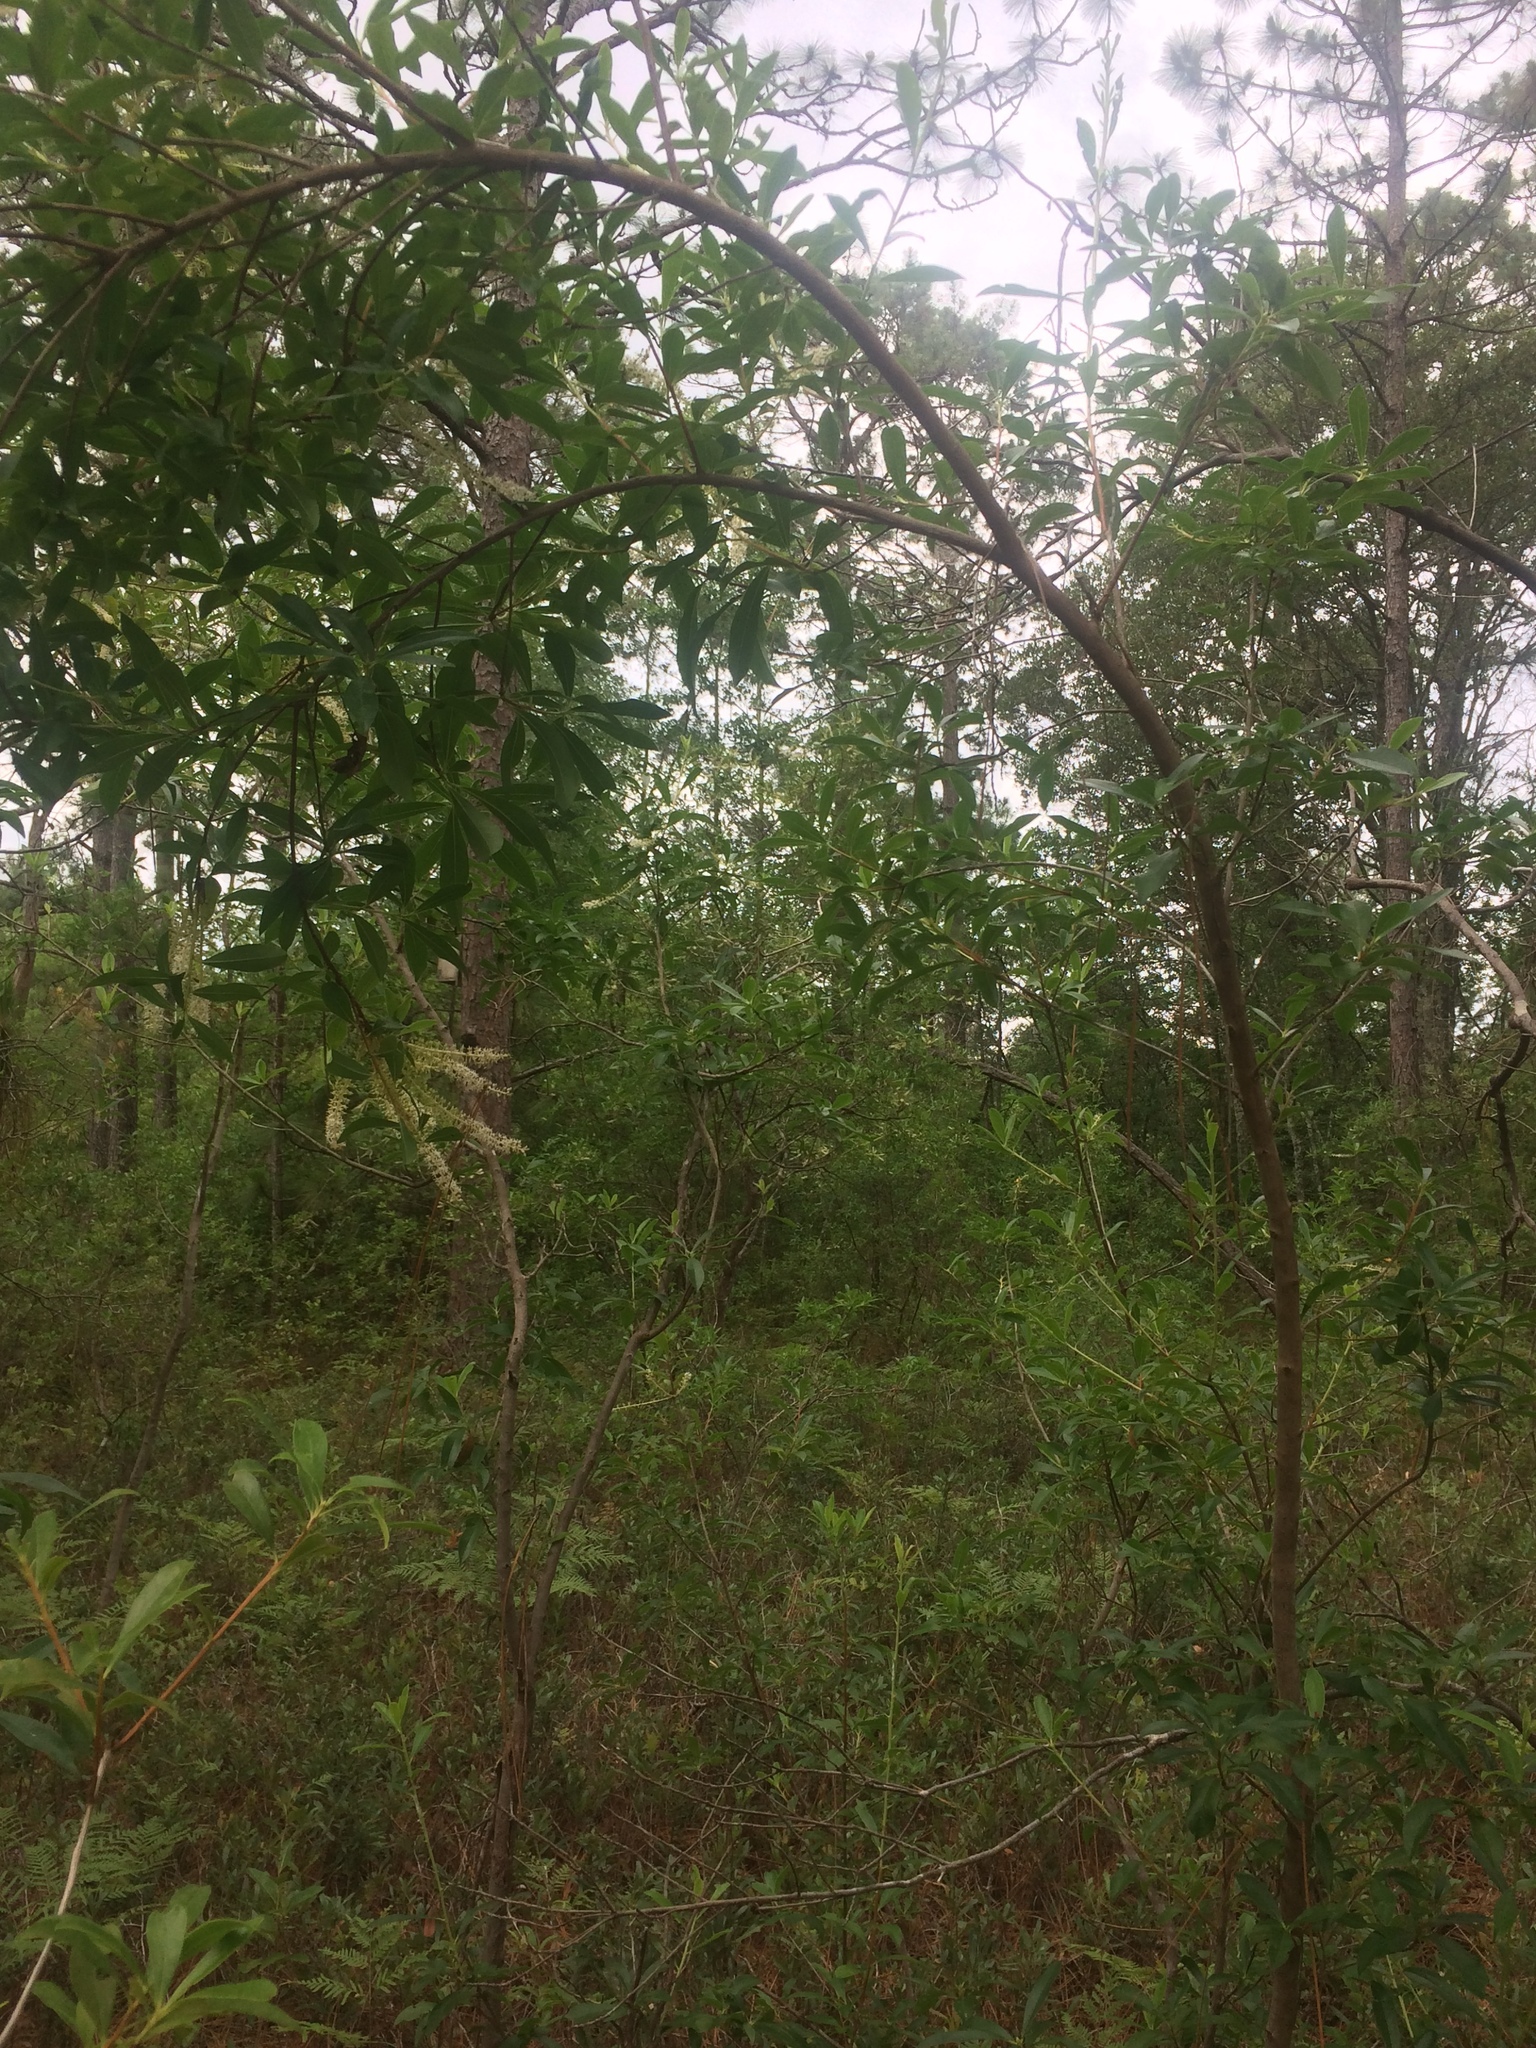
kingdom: Plantae
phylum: Tracheophyta
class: Magnoliopsida
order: Ericales
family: Cyrillaceae
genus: Cyrilla
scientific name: Cyrilla racemiflora
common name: Black titi
